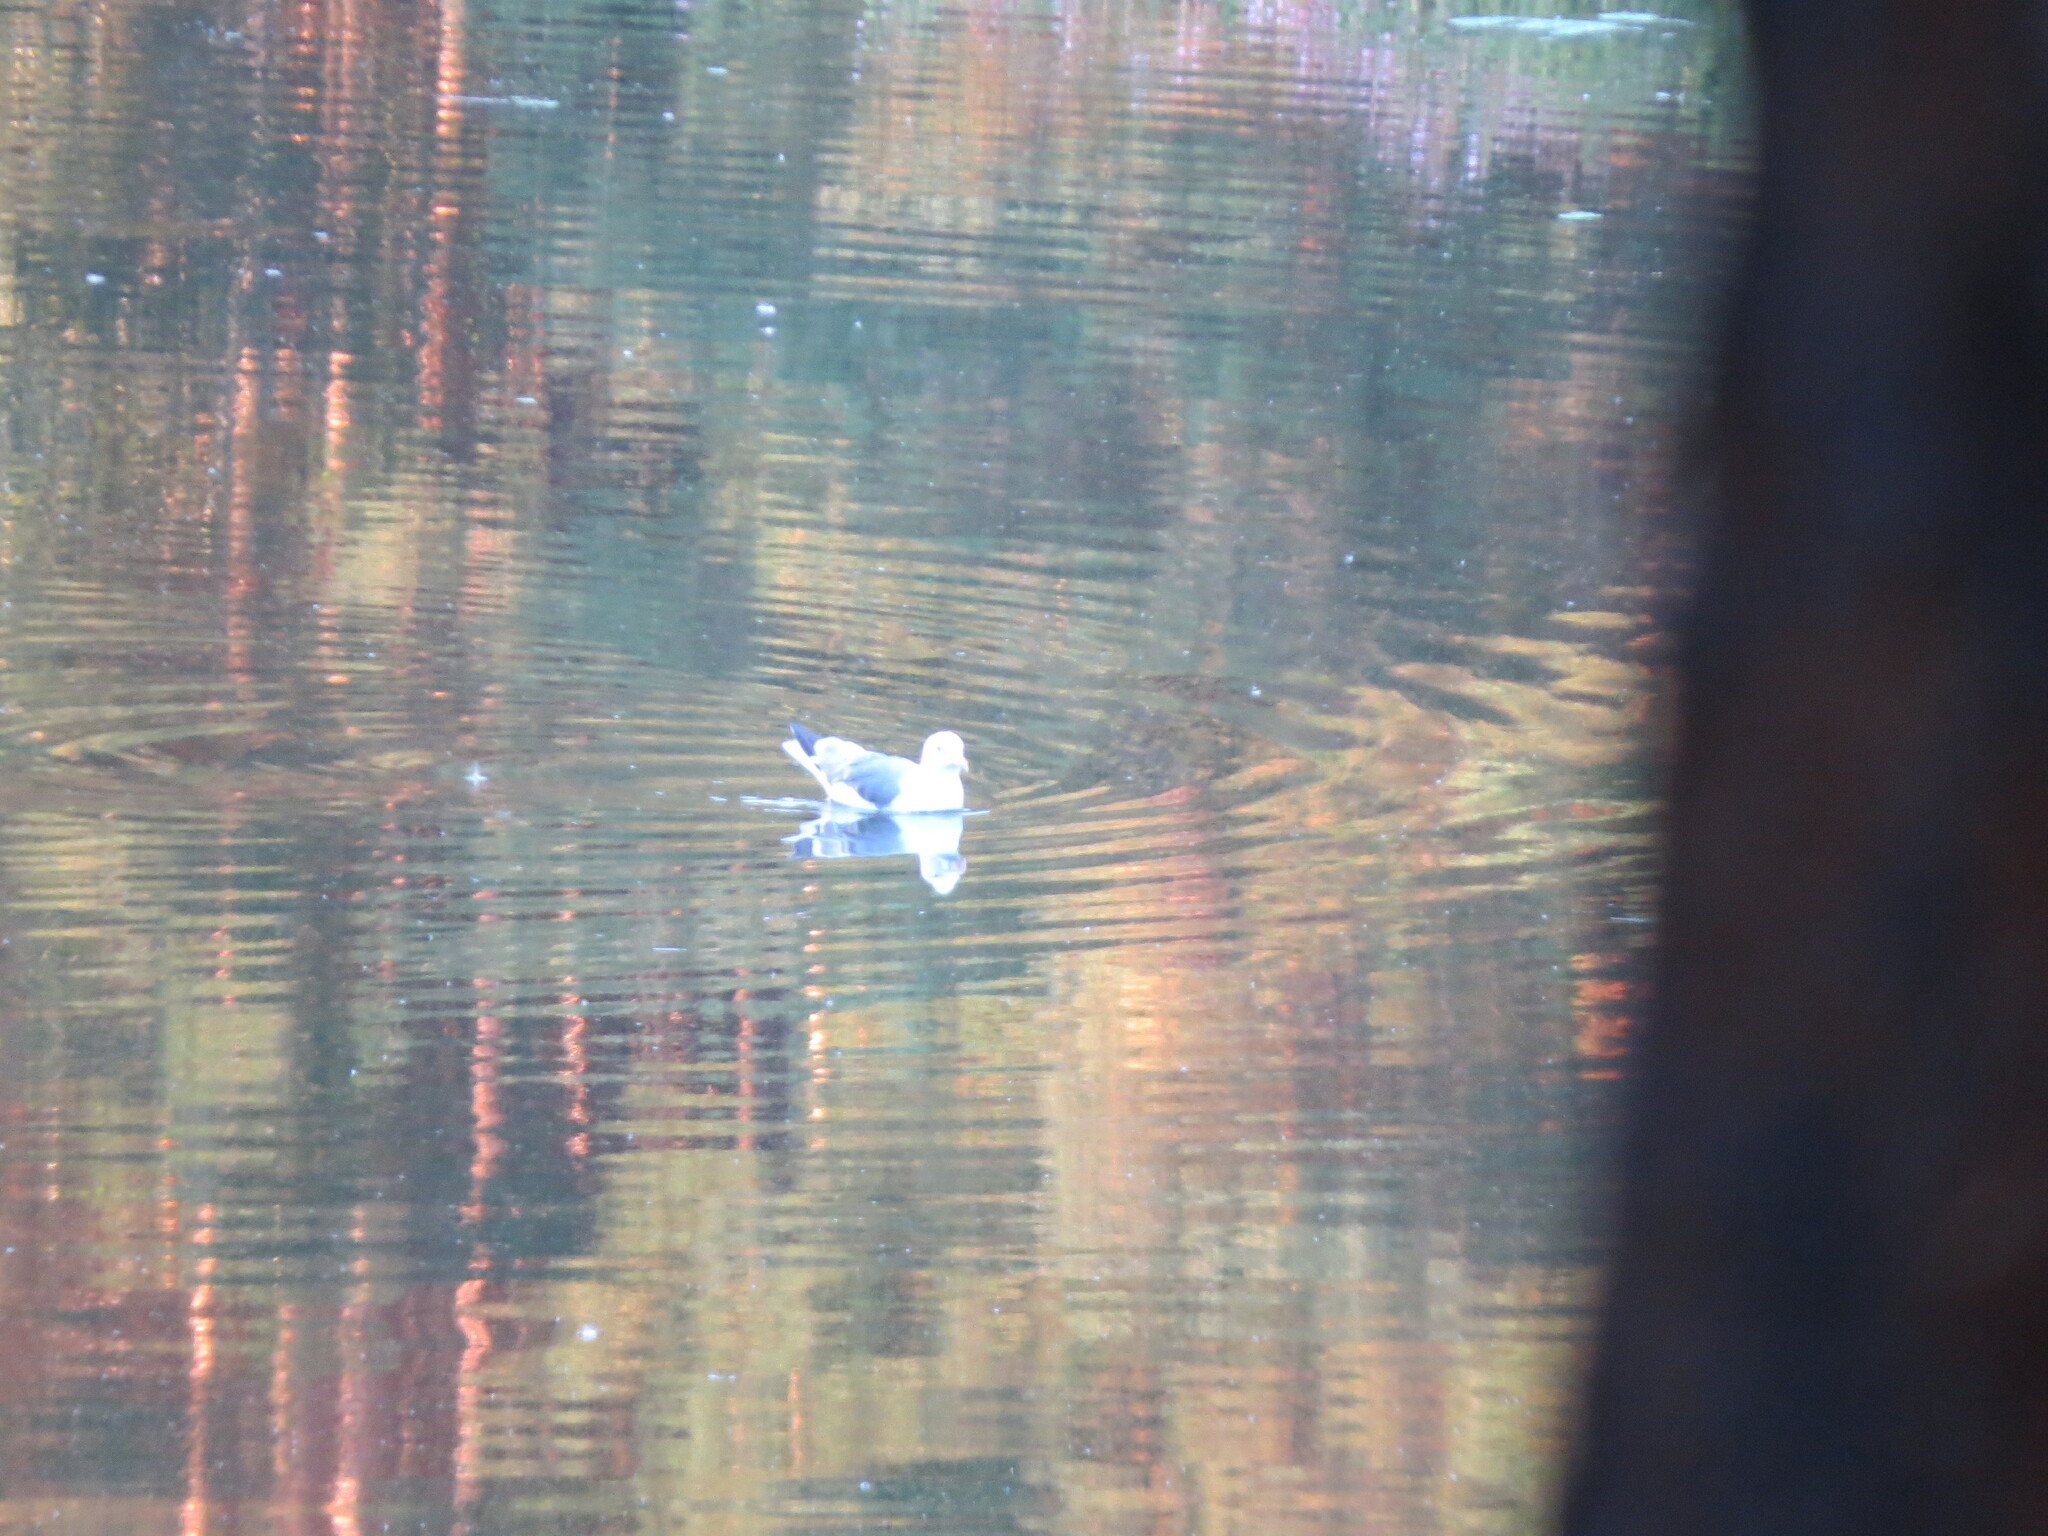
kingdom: Animalia
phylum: Chordata
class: Aves
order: Charadriiformes
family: Laridae
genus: Larus
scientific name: Larus fuscus
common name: Lesser black-backed gull
